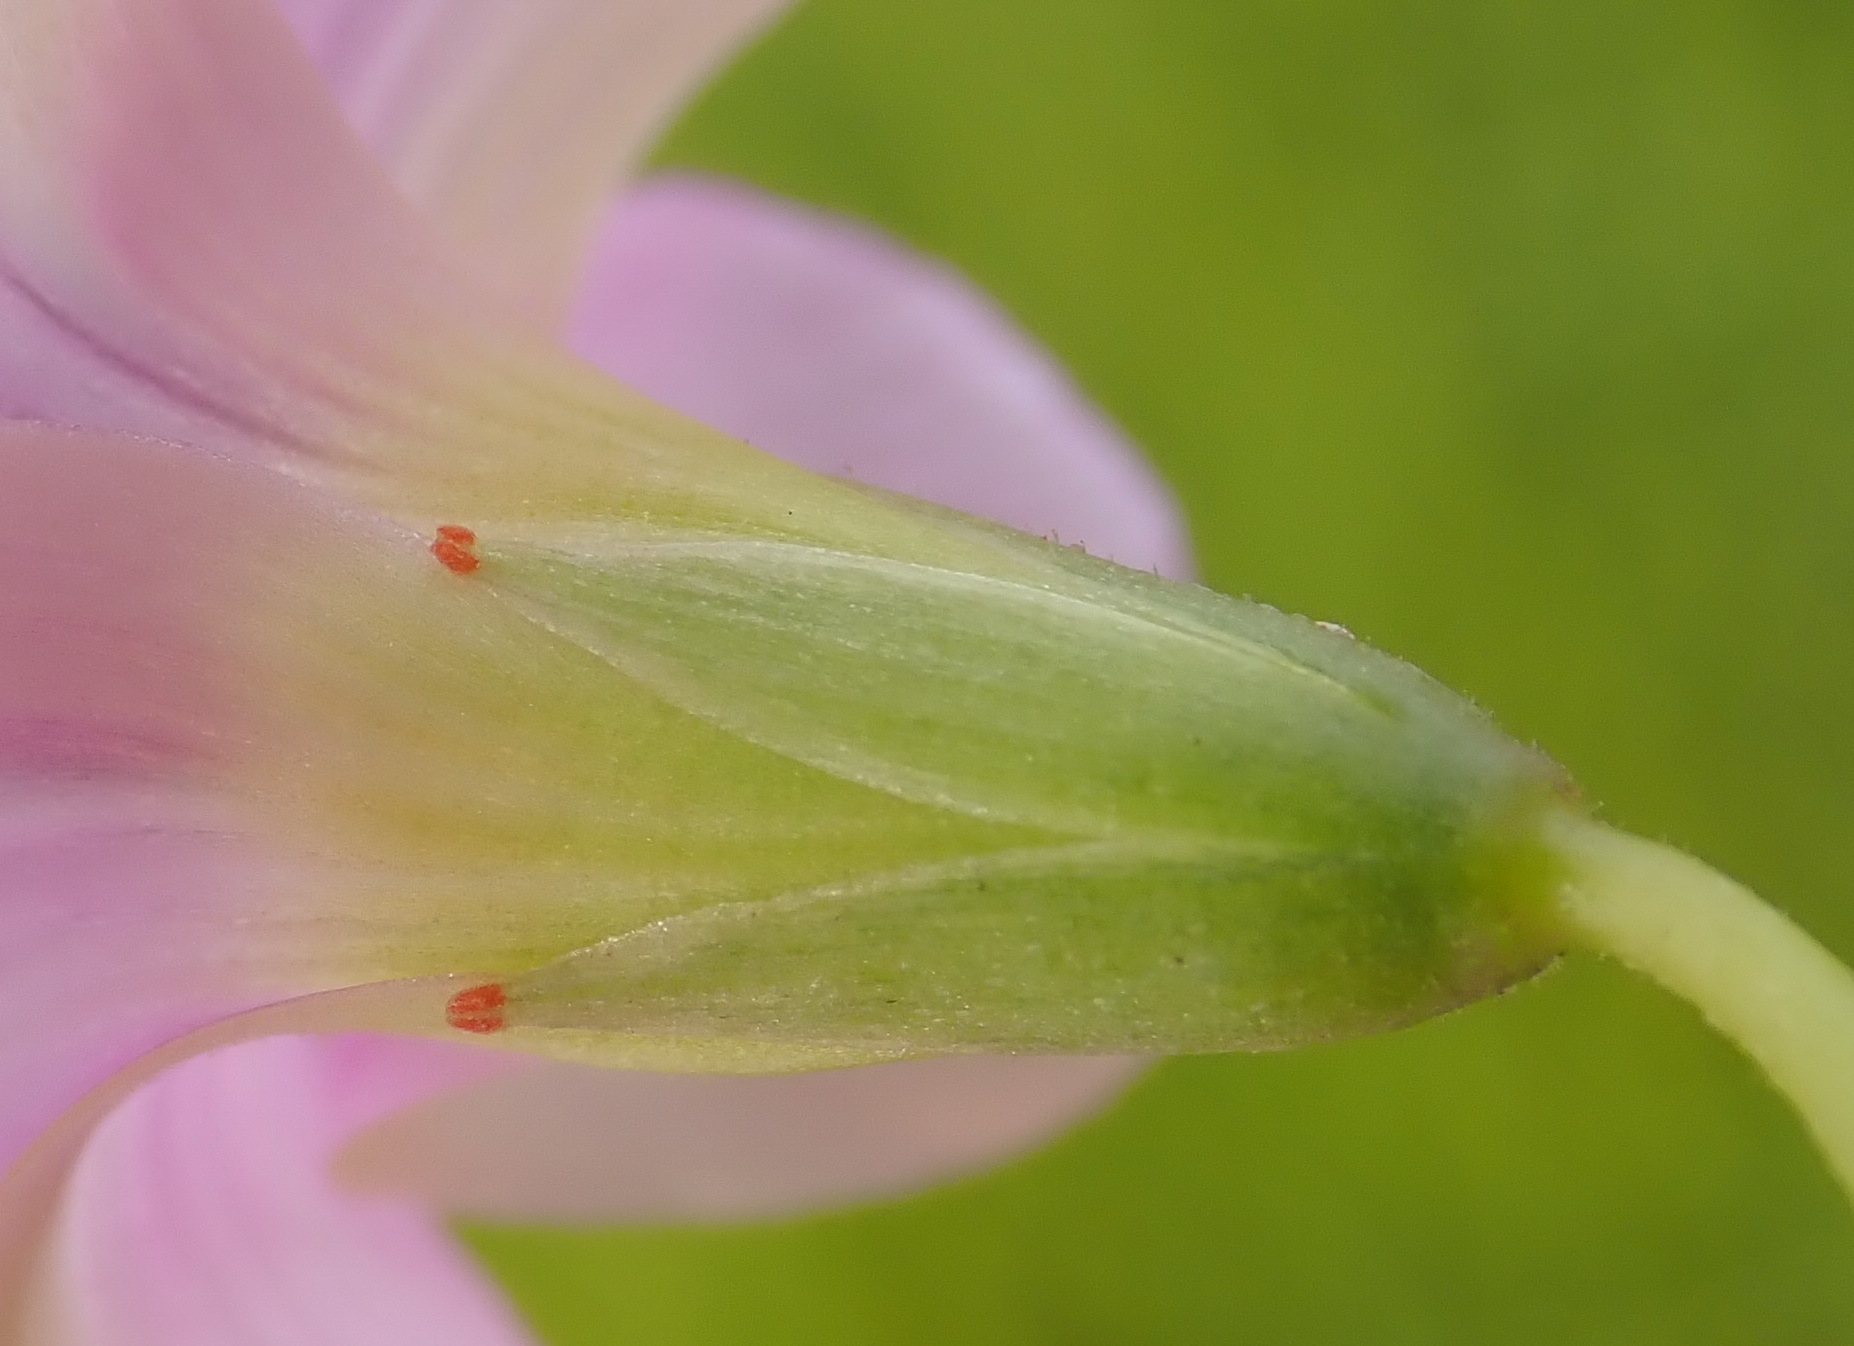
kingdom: Plantae
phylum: Tracheophyta
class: Magnoliopsida
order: Oxalidales
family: Oxalidaceae
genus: Oxalis
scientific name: Oxalis stellata
